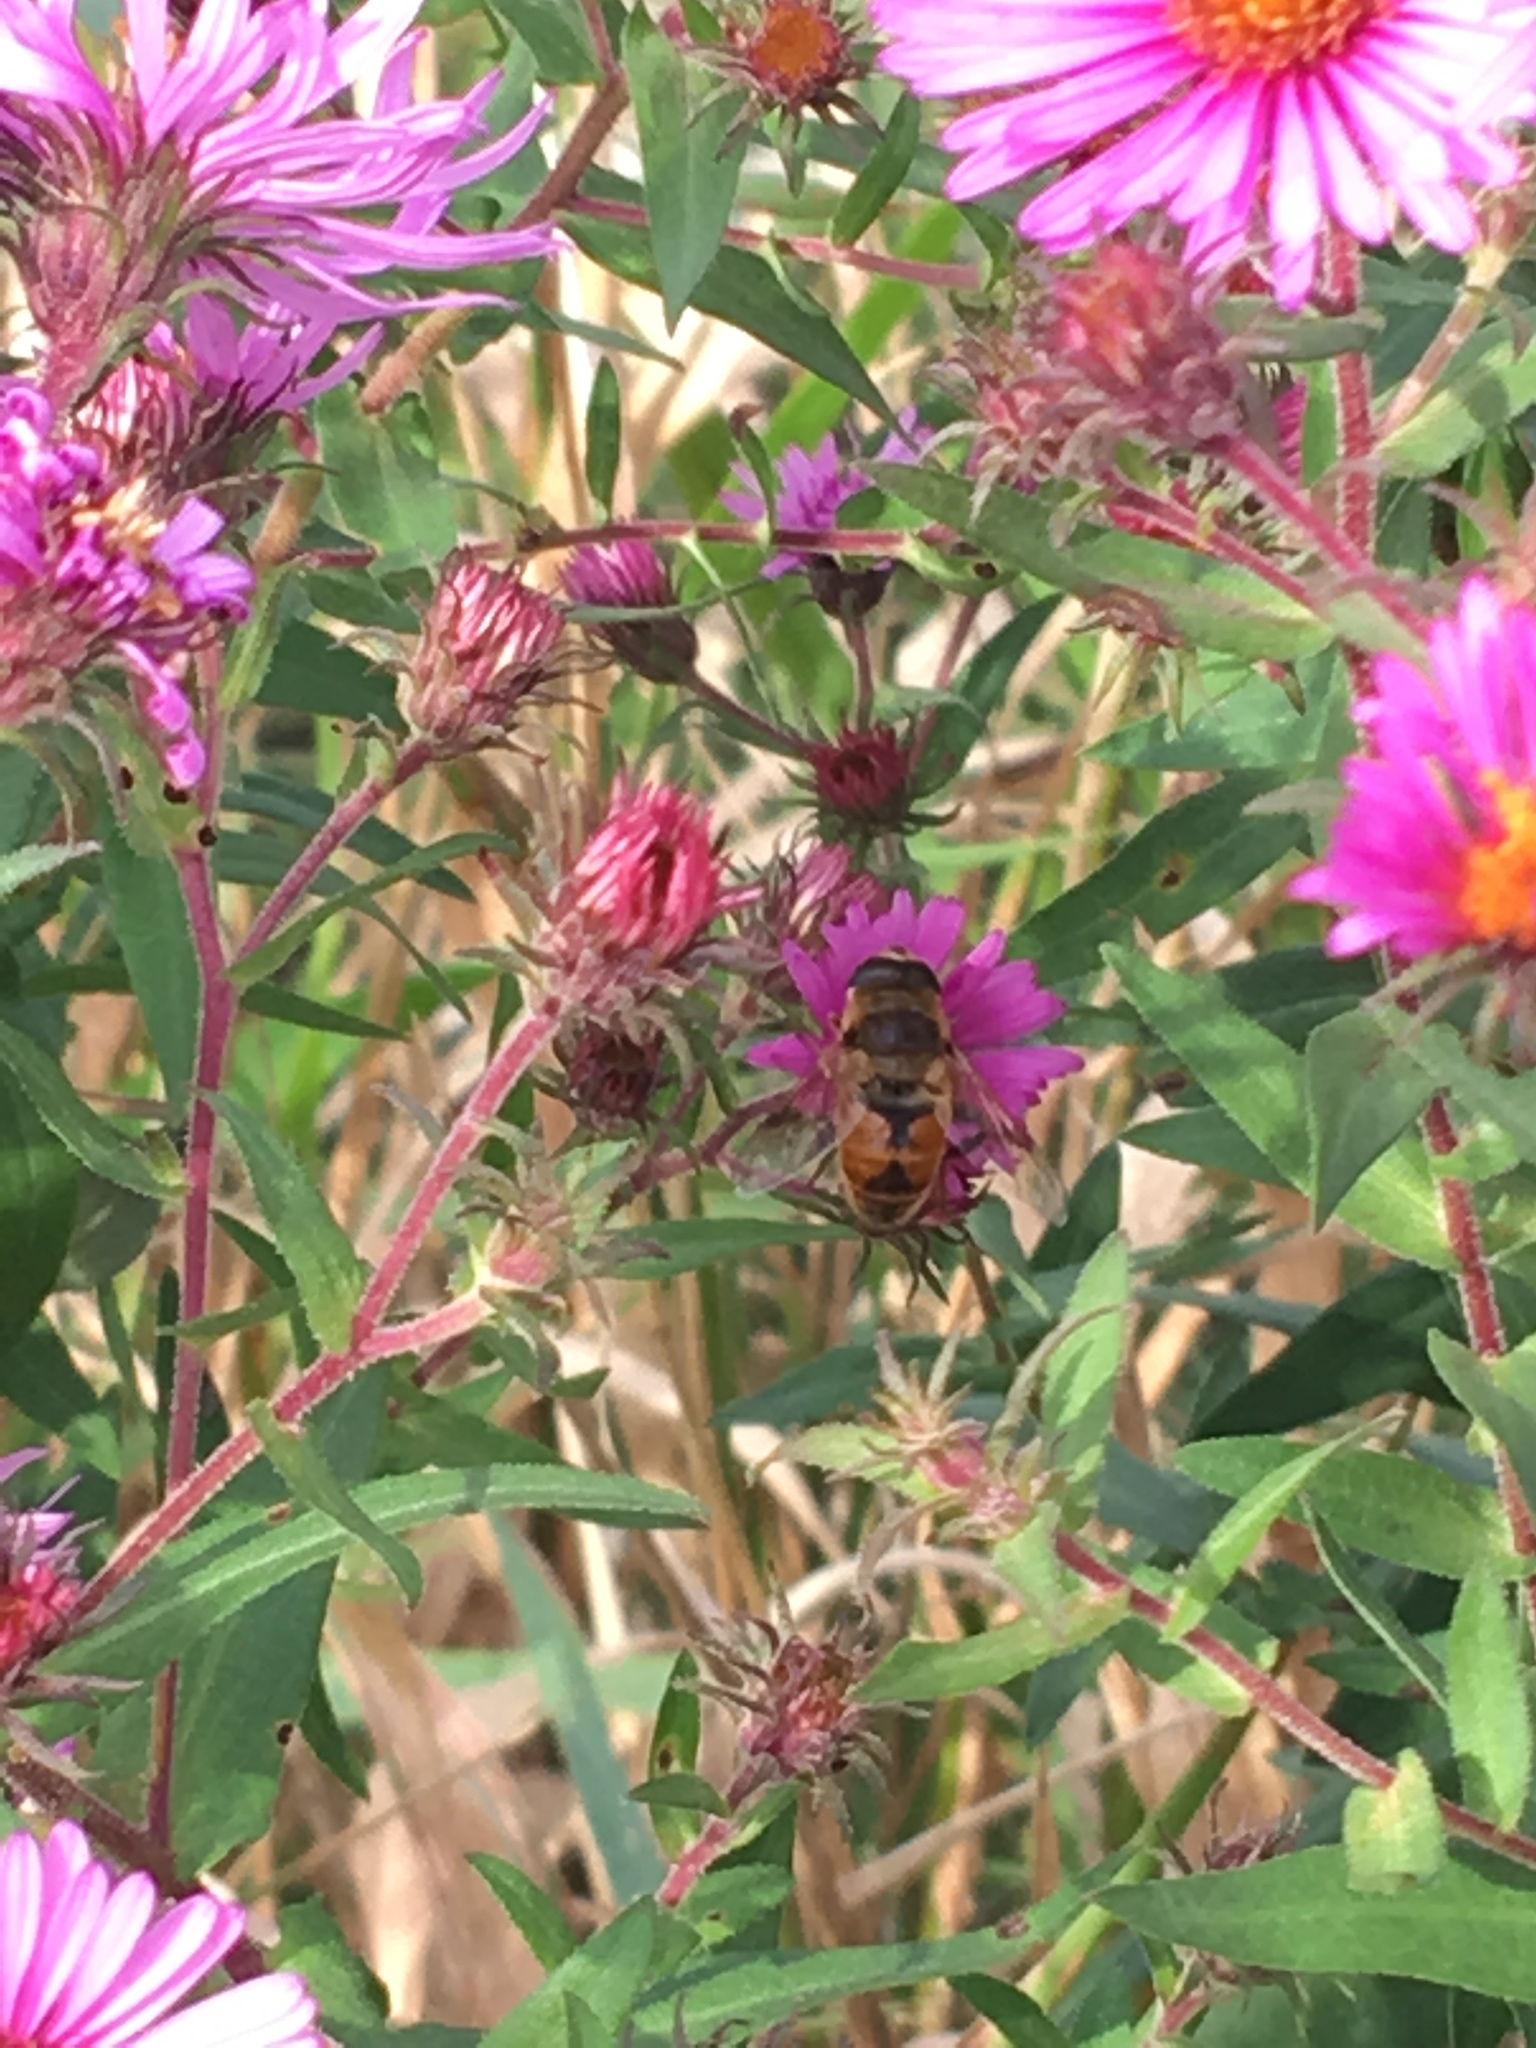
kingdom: Animalia
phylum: Arthropoda
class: Insecta
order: Diptera
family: Syrphidae
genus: Eristalis
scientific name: Eristalis tenax
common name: Drone fly
